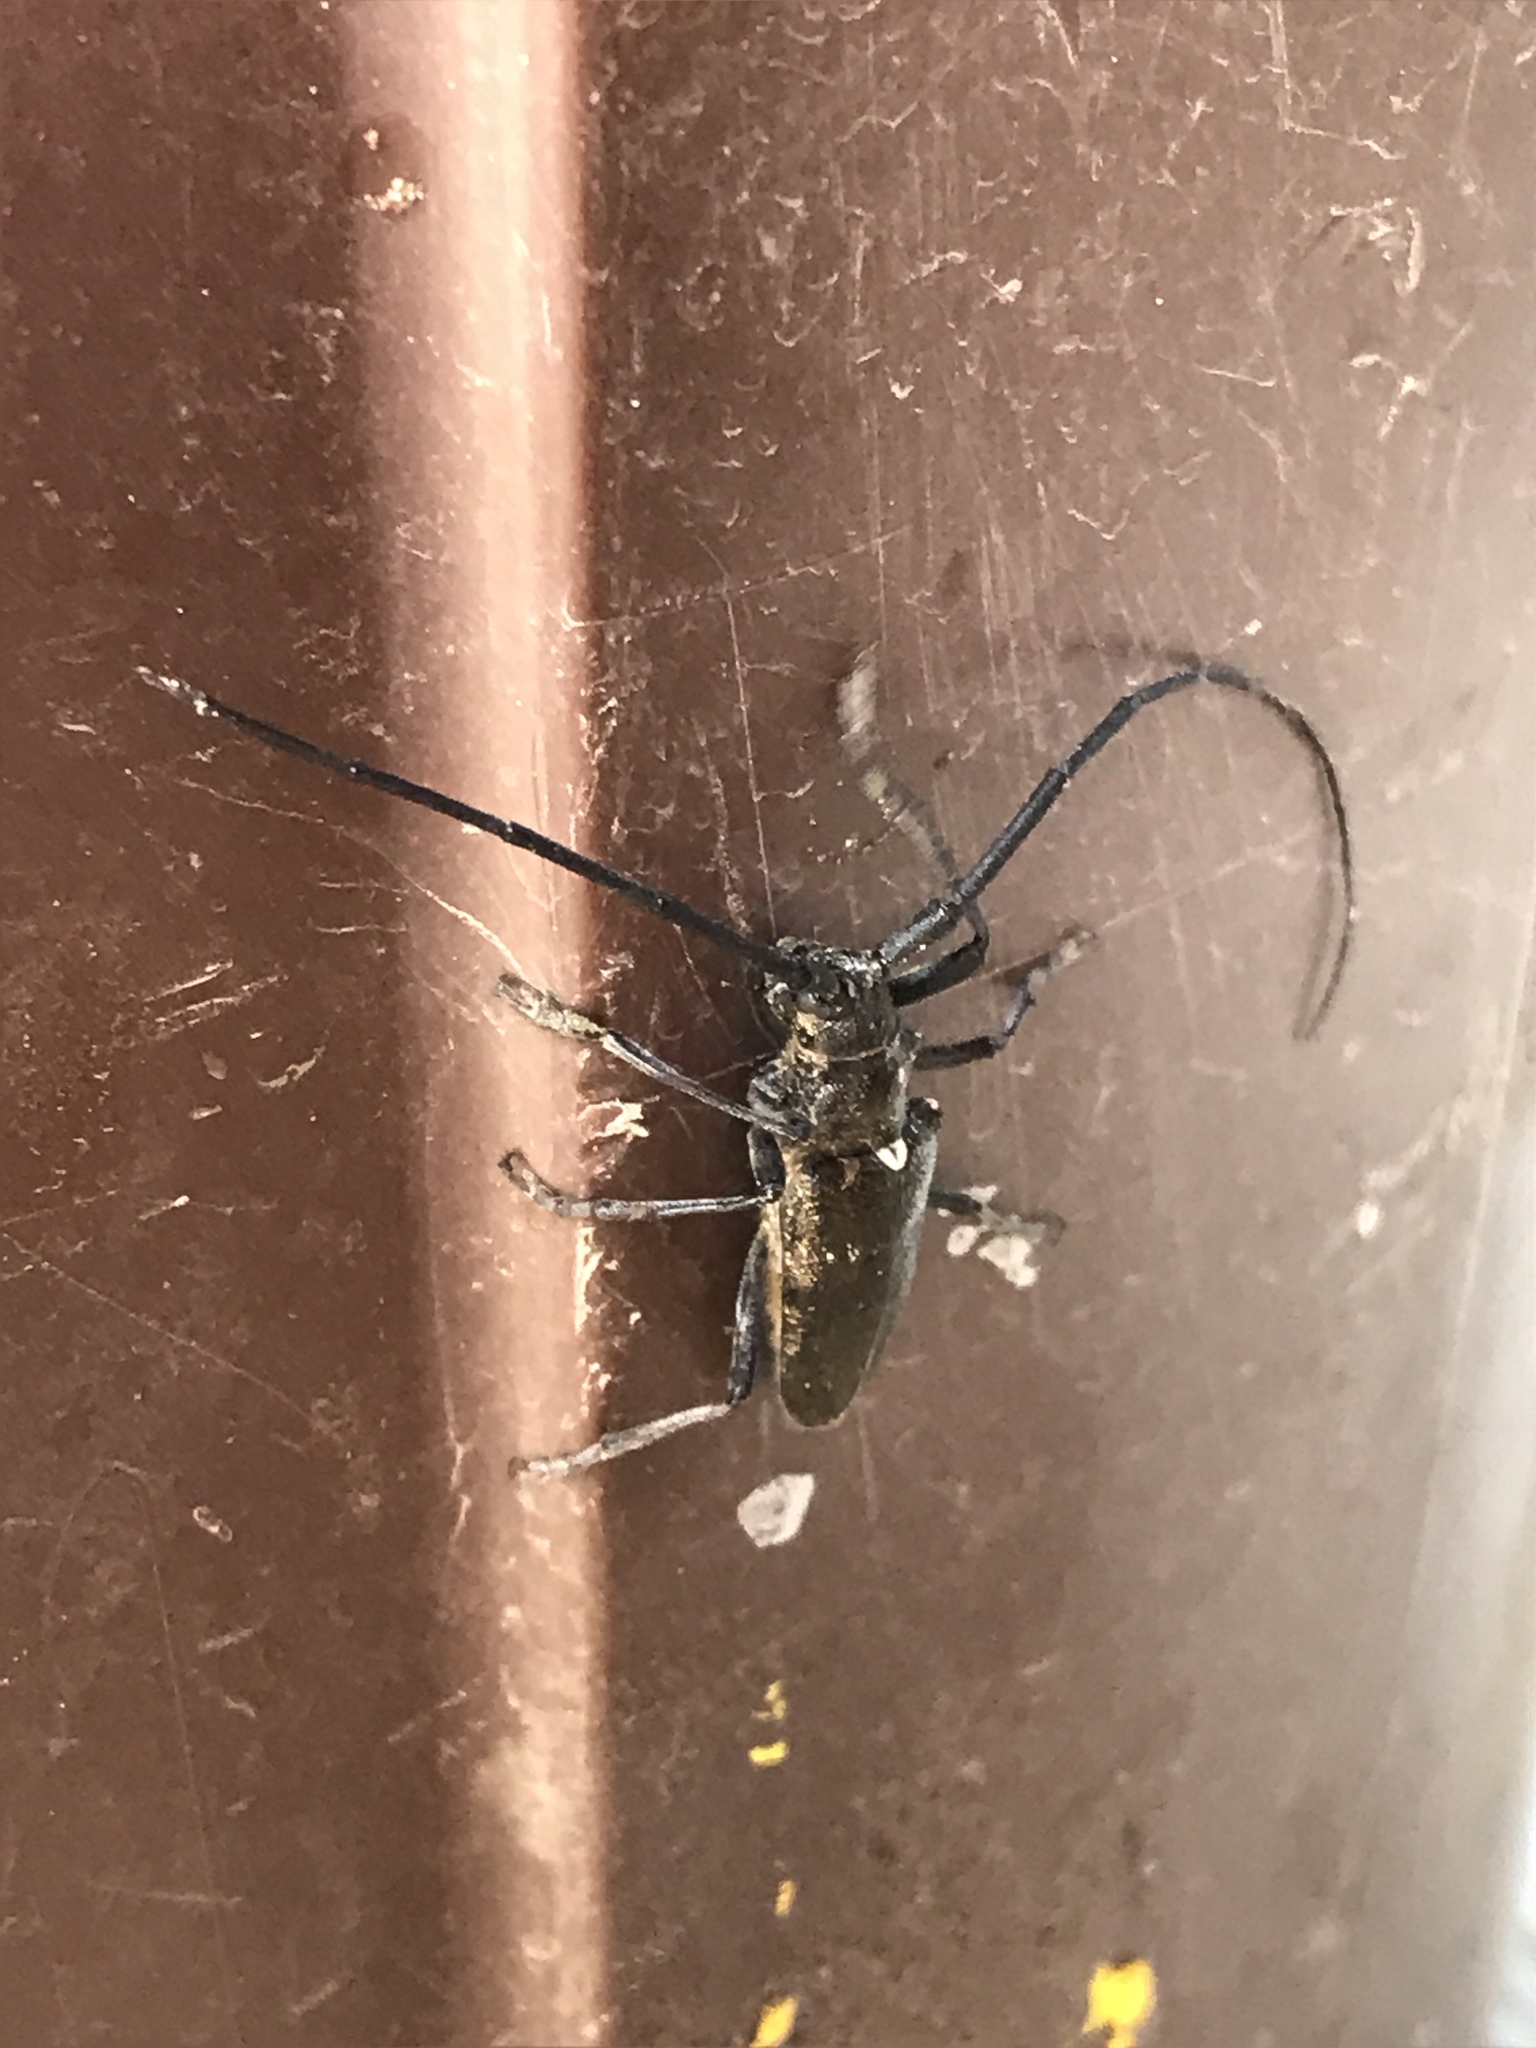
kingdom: Animalia
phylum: Arthropoda
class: Insecta
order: Coleoptera
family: Cerambycidae
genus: Monochamus
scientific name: Monochamus scutellatus
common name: White-spotted sawyer beetle
